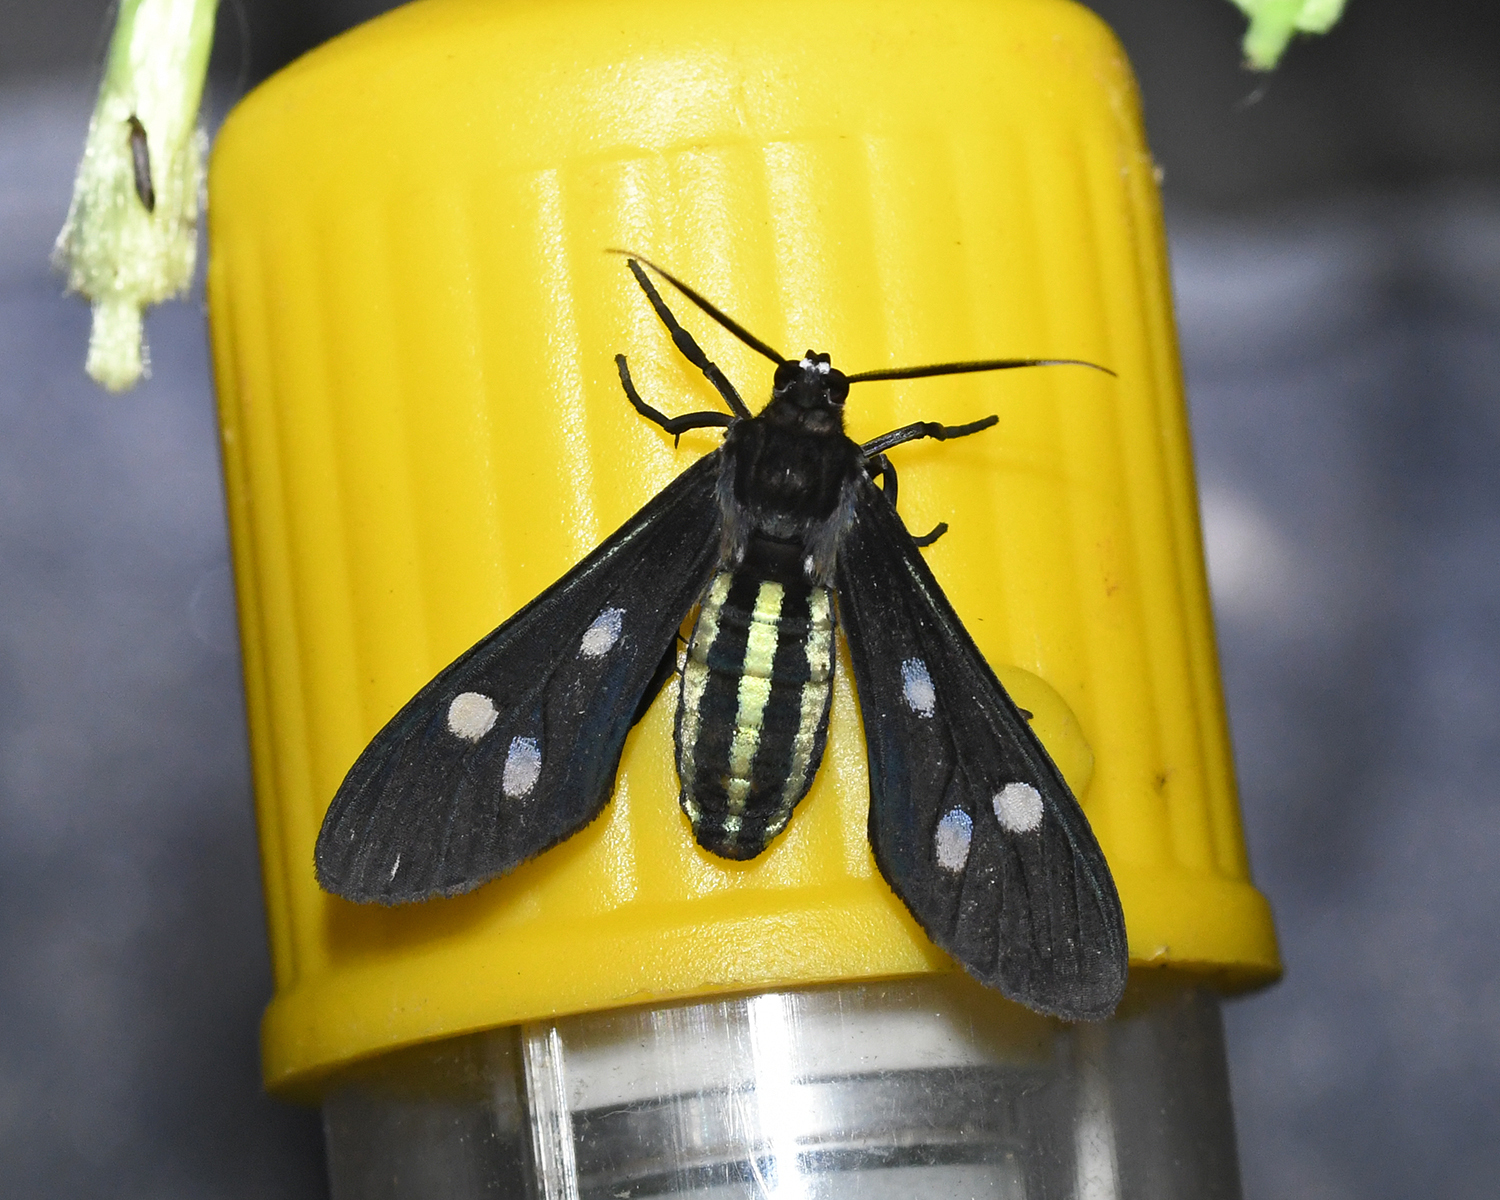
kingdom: Animalia
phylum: Arthropoda
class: Insecta
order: Lepidoptera
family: Erebidae
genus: Calonotos
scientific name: Calonotos craneae
